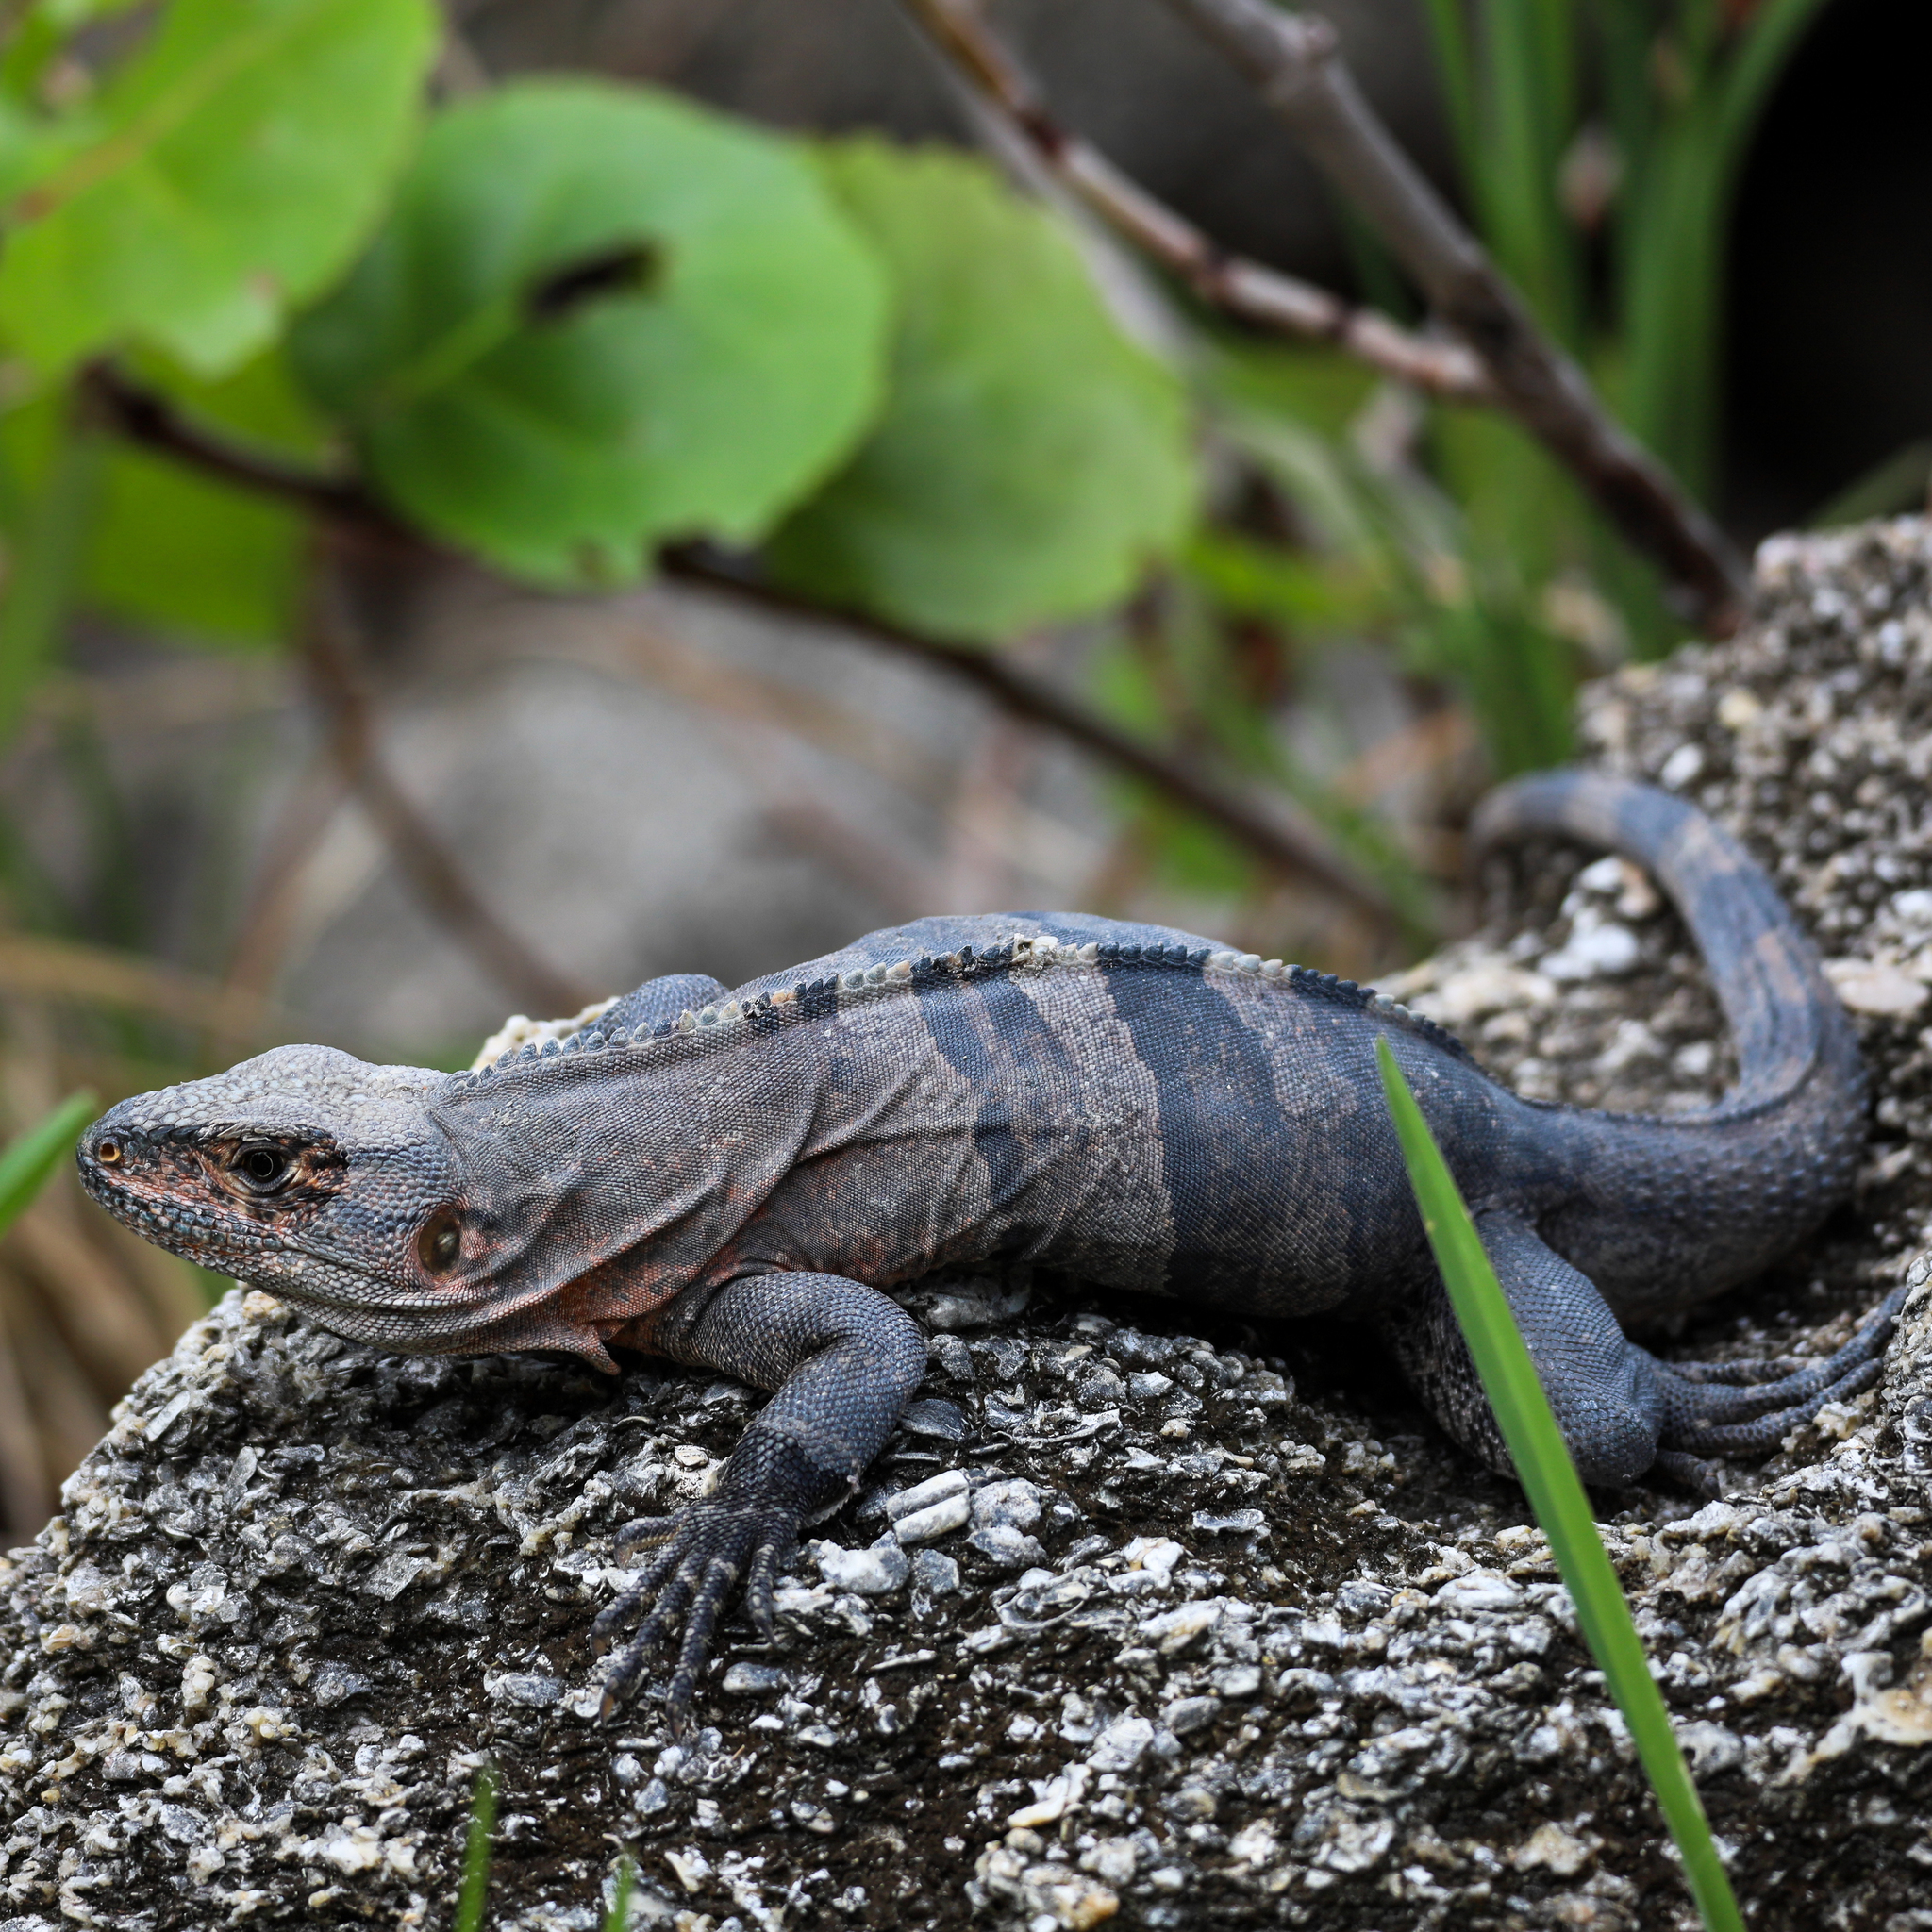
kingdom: Animalia
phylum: Chordata
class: Squamata
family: Iguanidae
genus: Ctenosaura
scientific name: Ctenosaura similis
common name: Black spiny-tailed iguana
